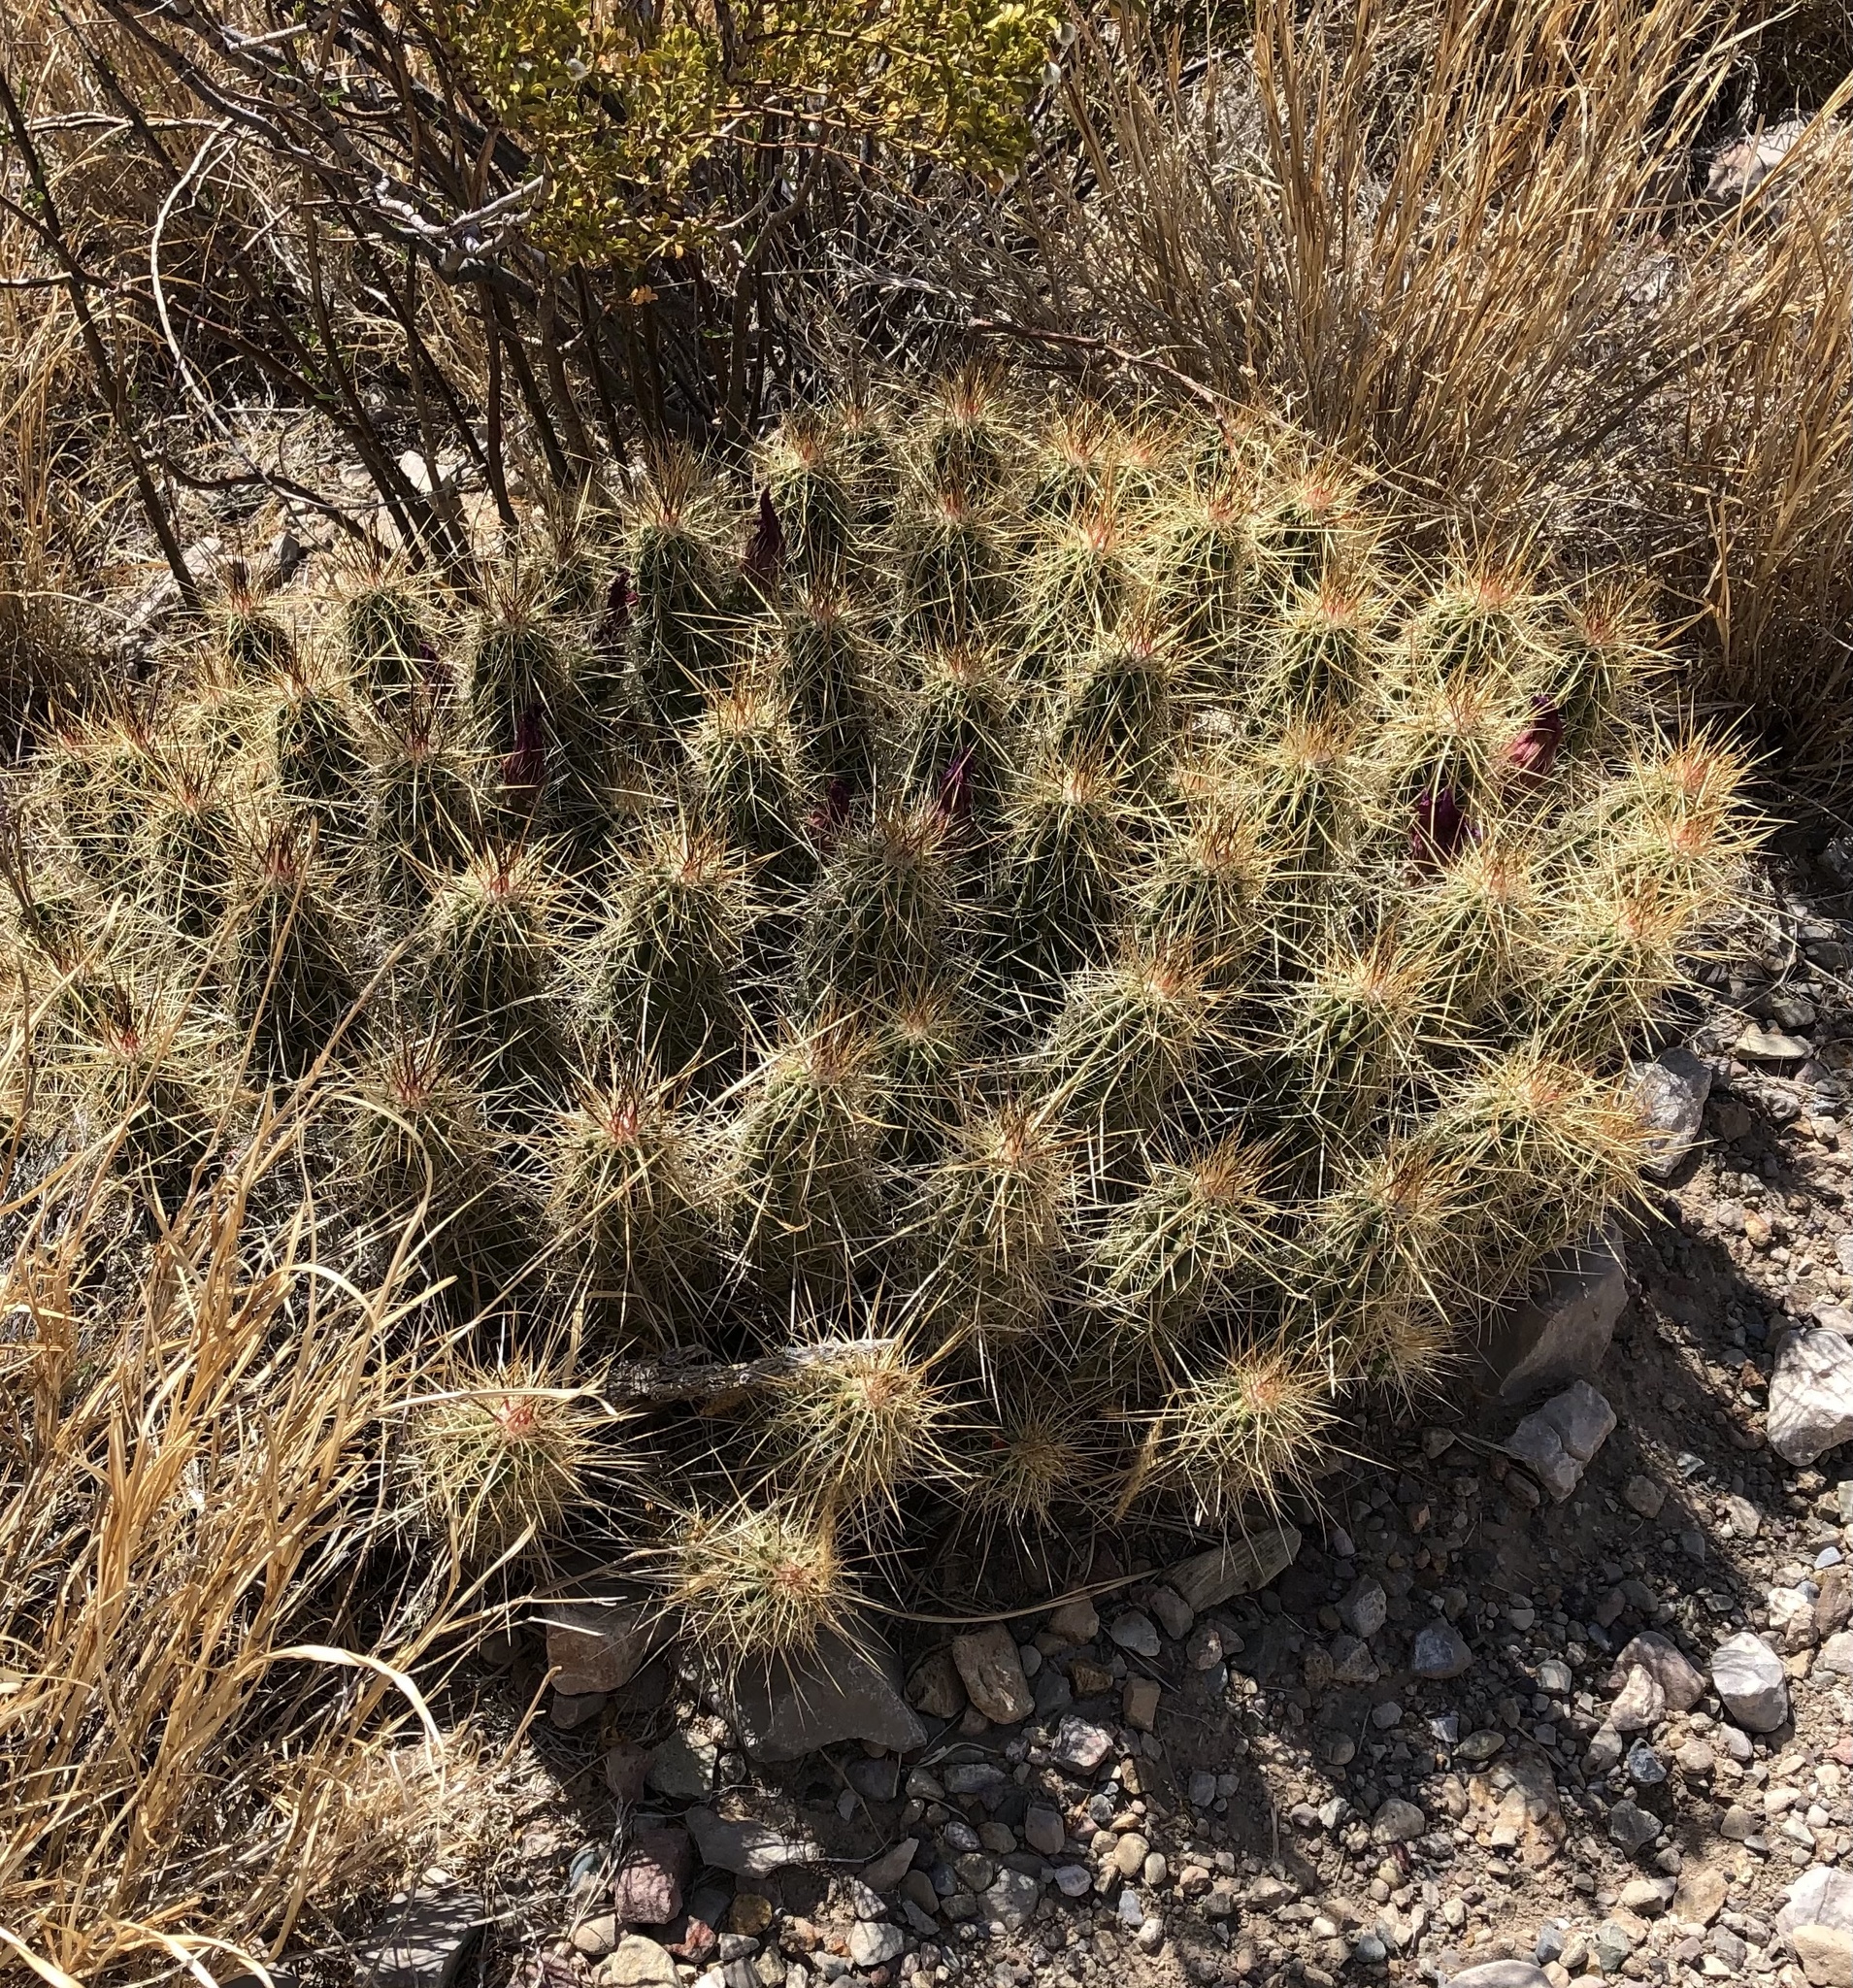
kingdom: Plantae
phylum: Tracheophyta
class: Magnoliopsida
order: Caryophyllales
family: Cactaceae
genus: Echinocereus
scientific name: Echinocereus stramineus
